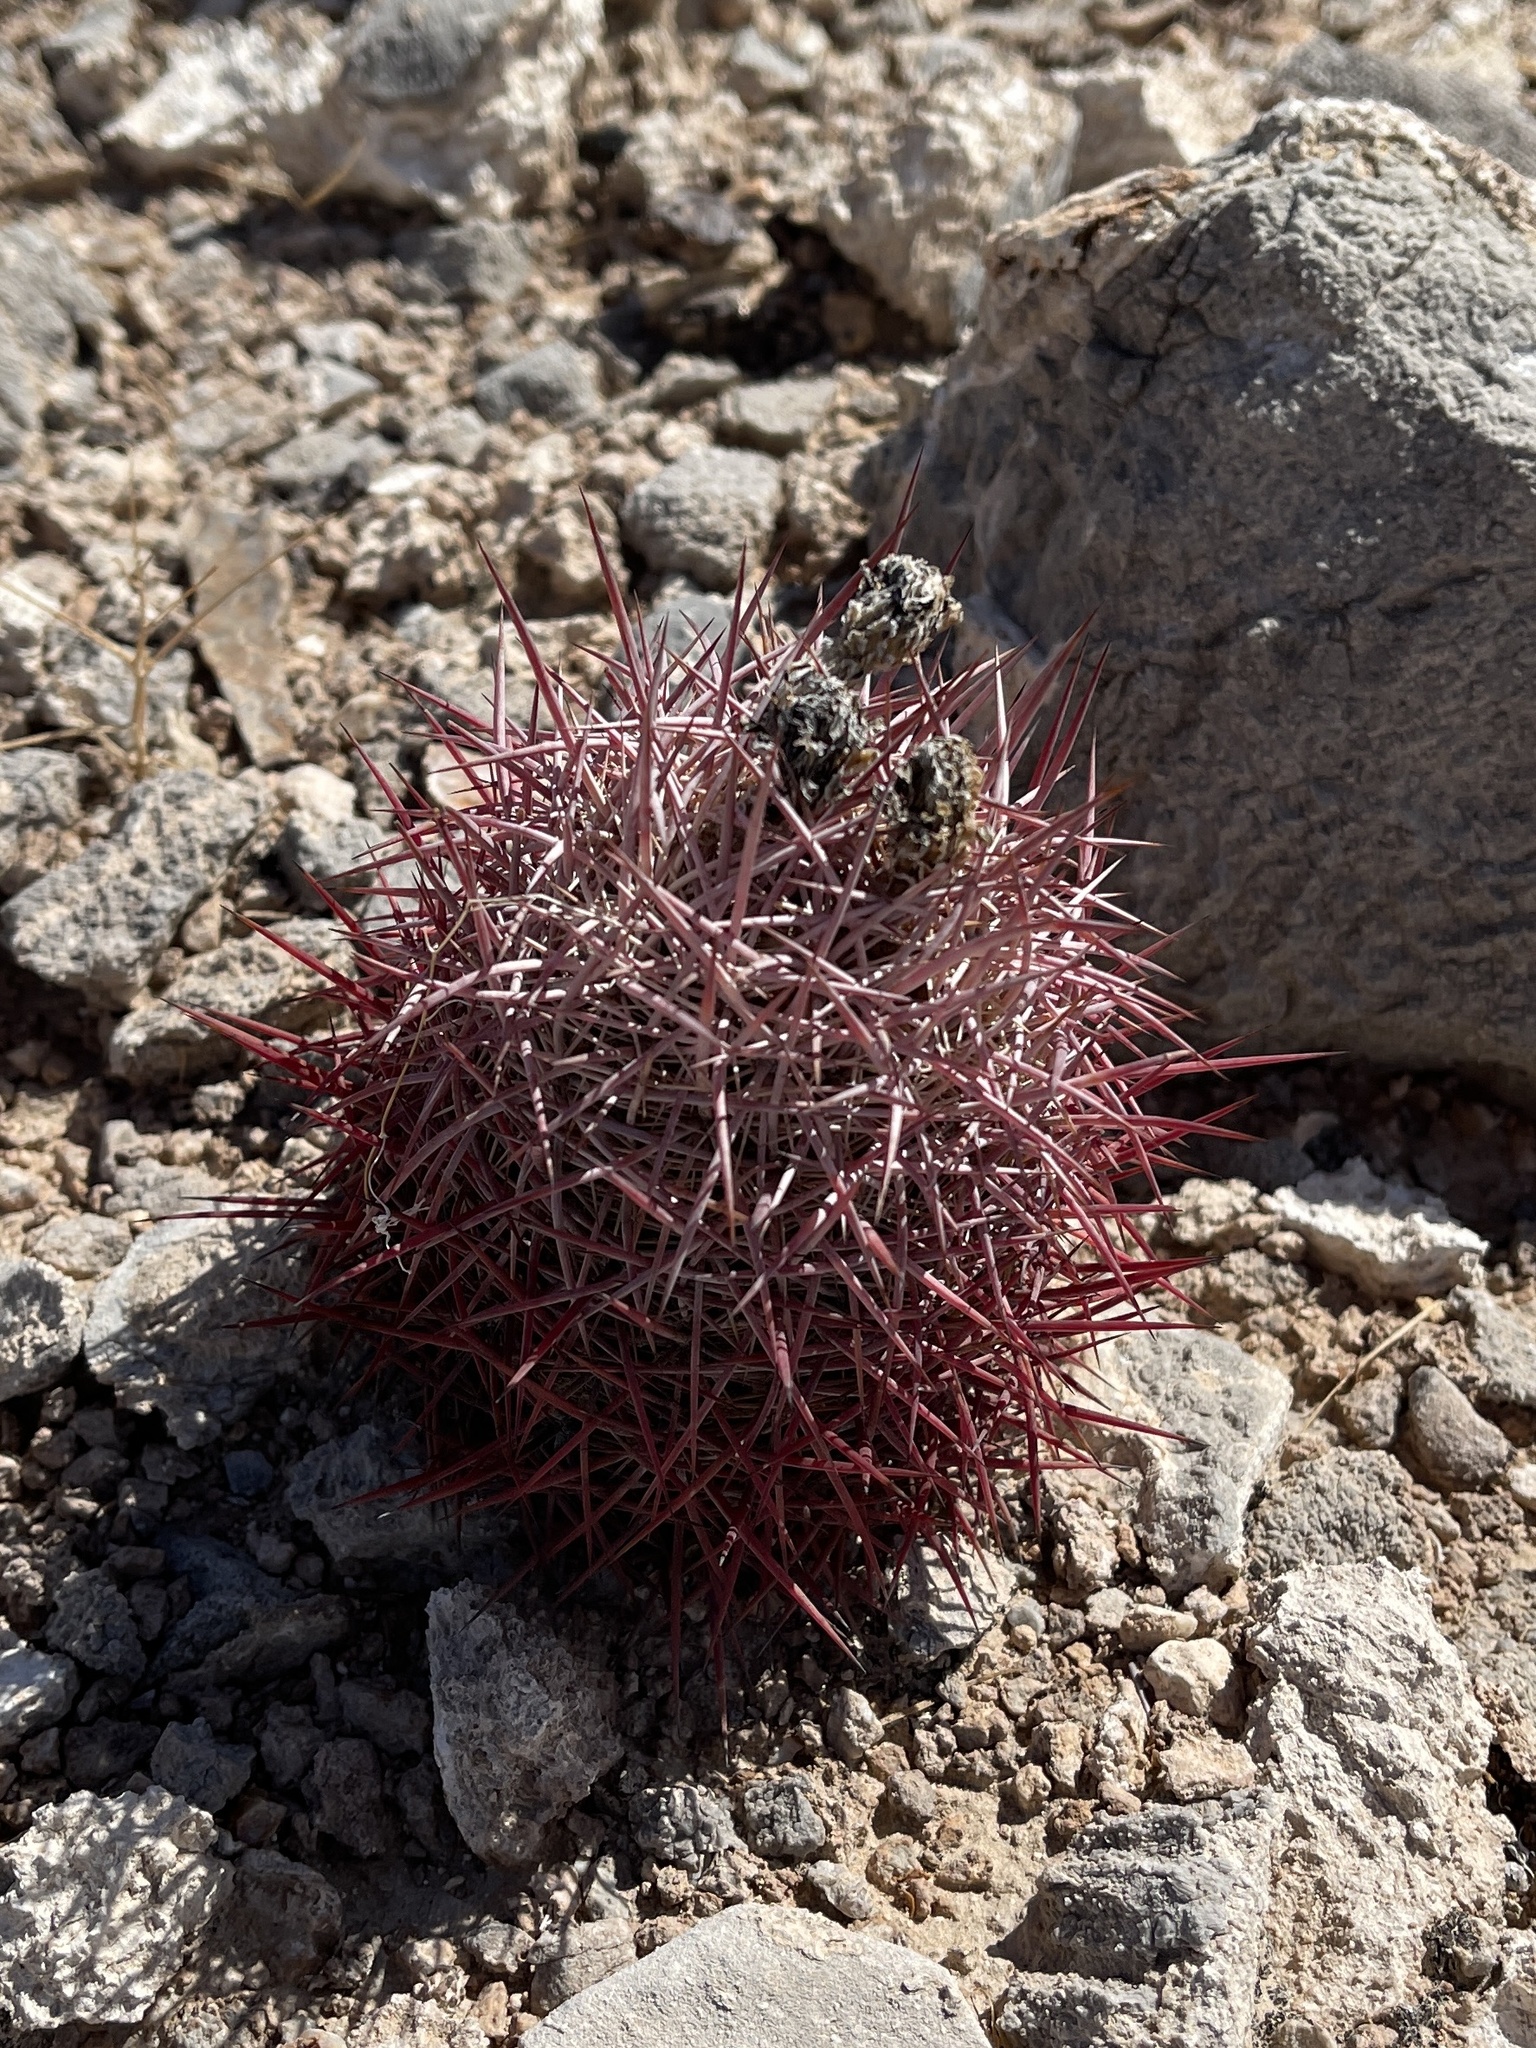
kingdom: Plantae
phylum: Tracheophyta
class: Magnoliopsida
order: Caryophyllales
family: Cactaceae
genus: Sclerocactus
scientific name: Sclerocactus johnsonii
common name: Eight-spine fishhook cactus
